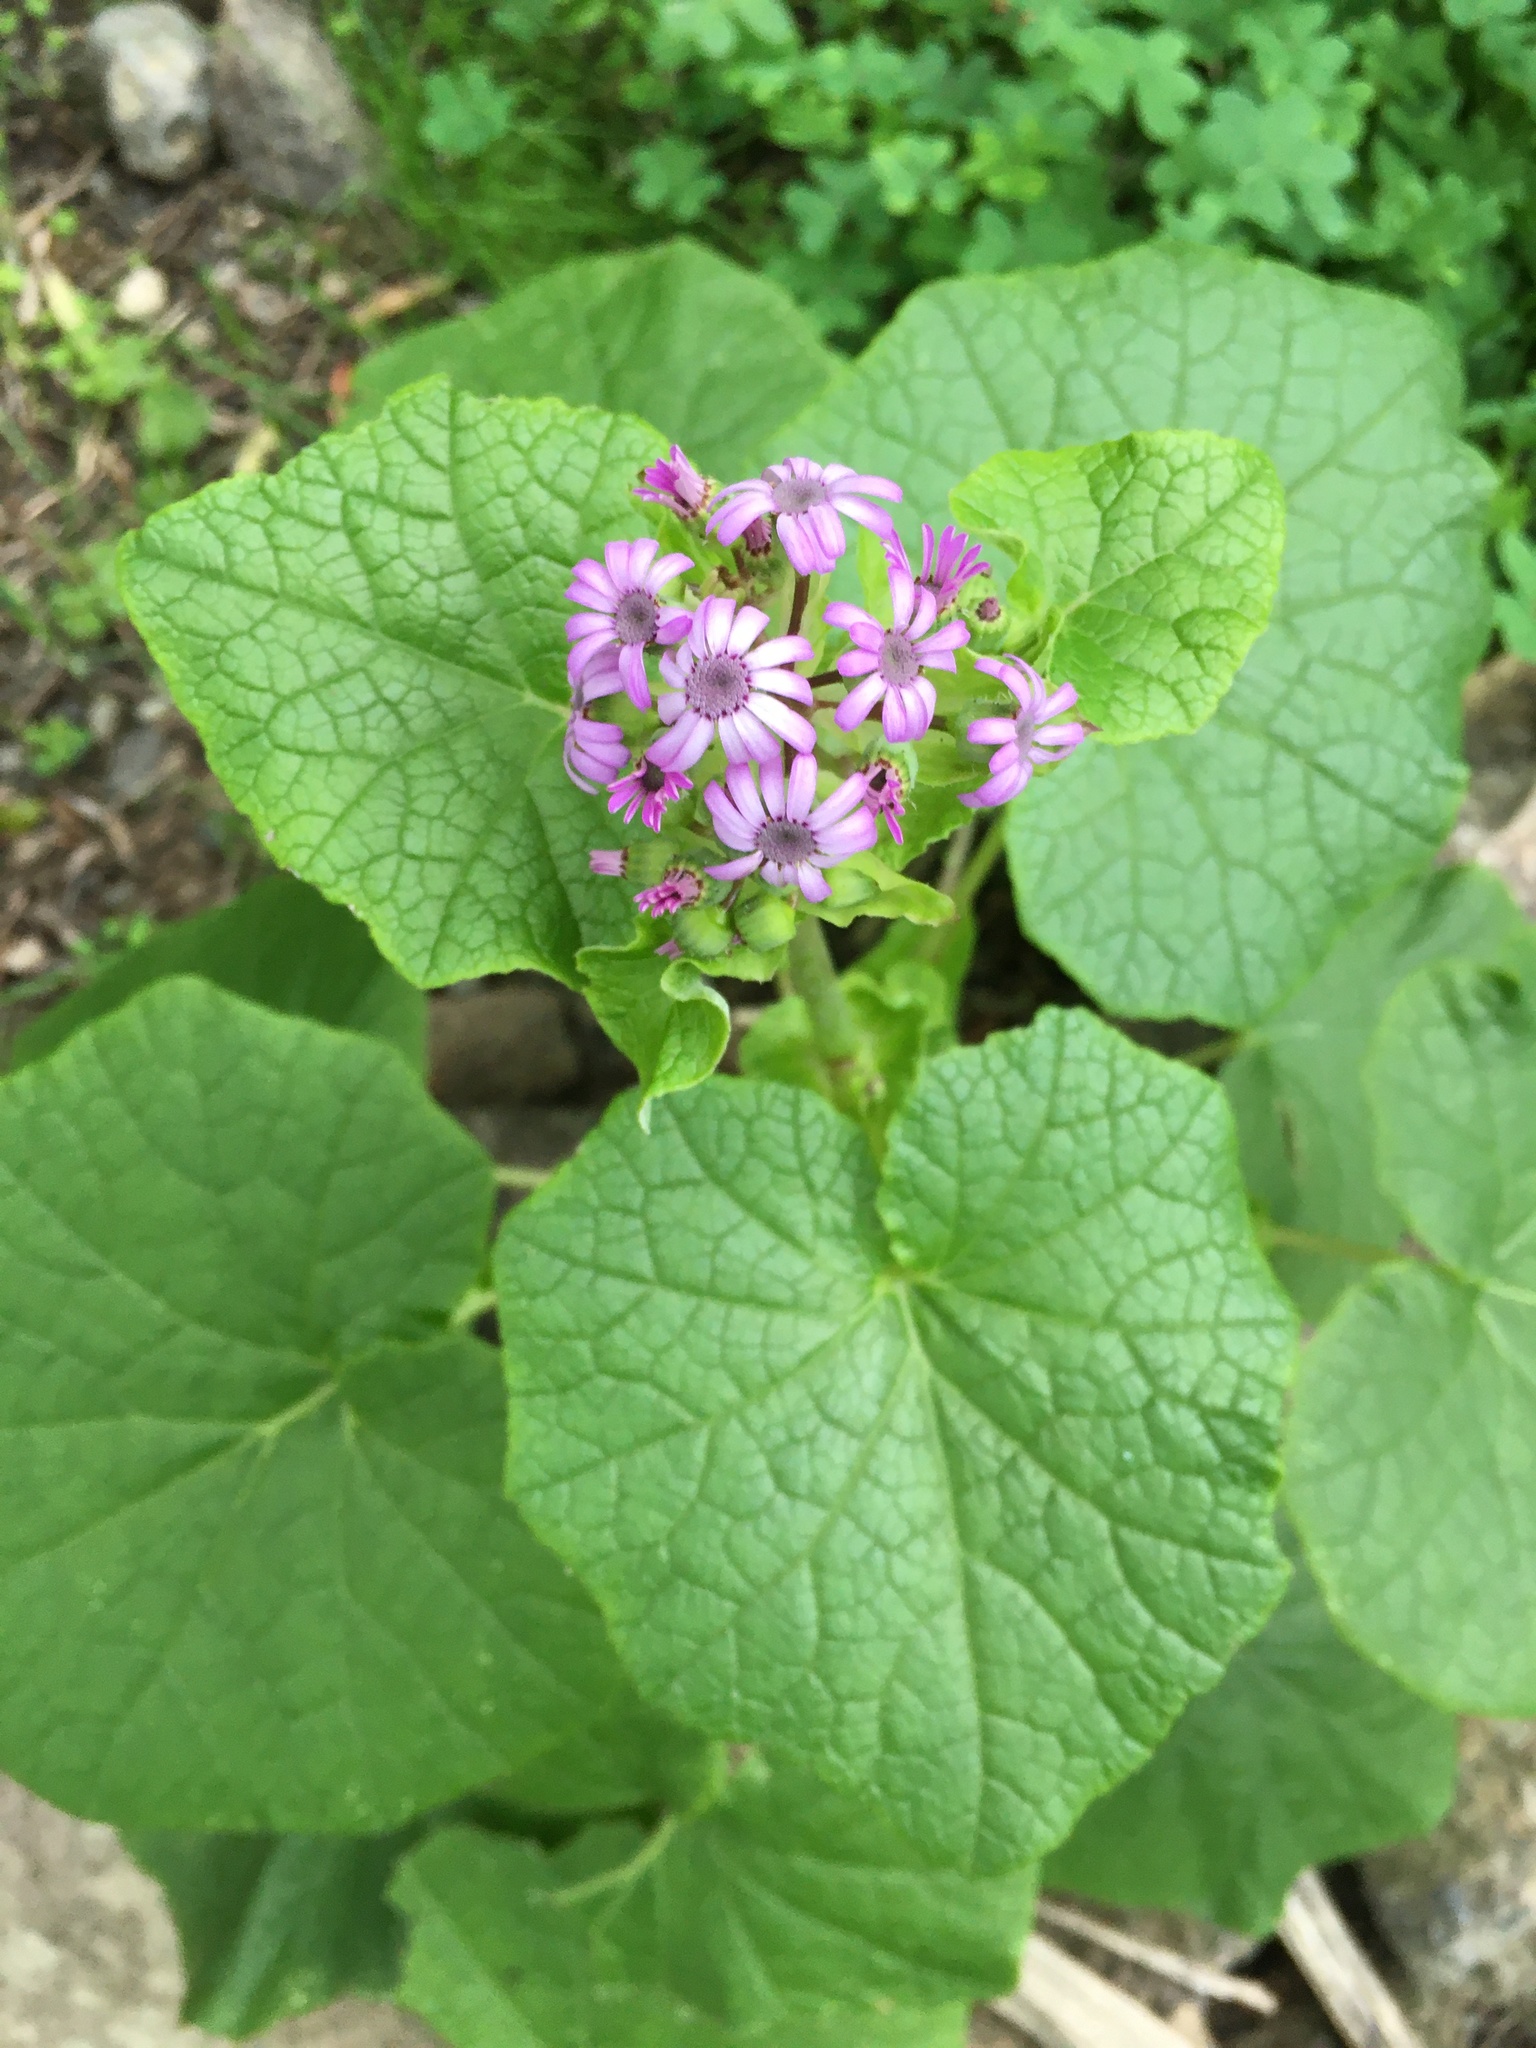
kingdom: Plantae
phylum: Tracheophyta
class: Magnoliopsida
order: Asterales
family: Asteraceae
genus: Pericallis
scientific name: Pericallis webbii
